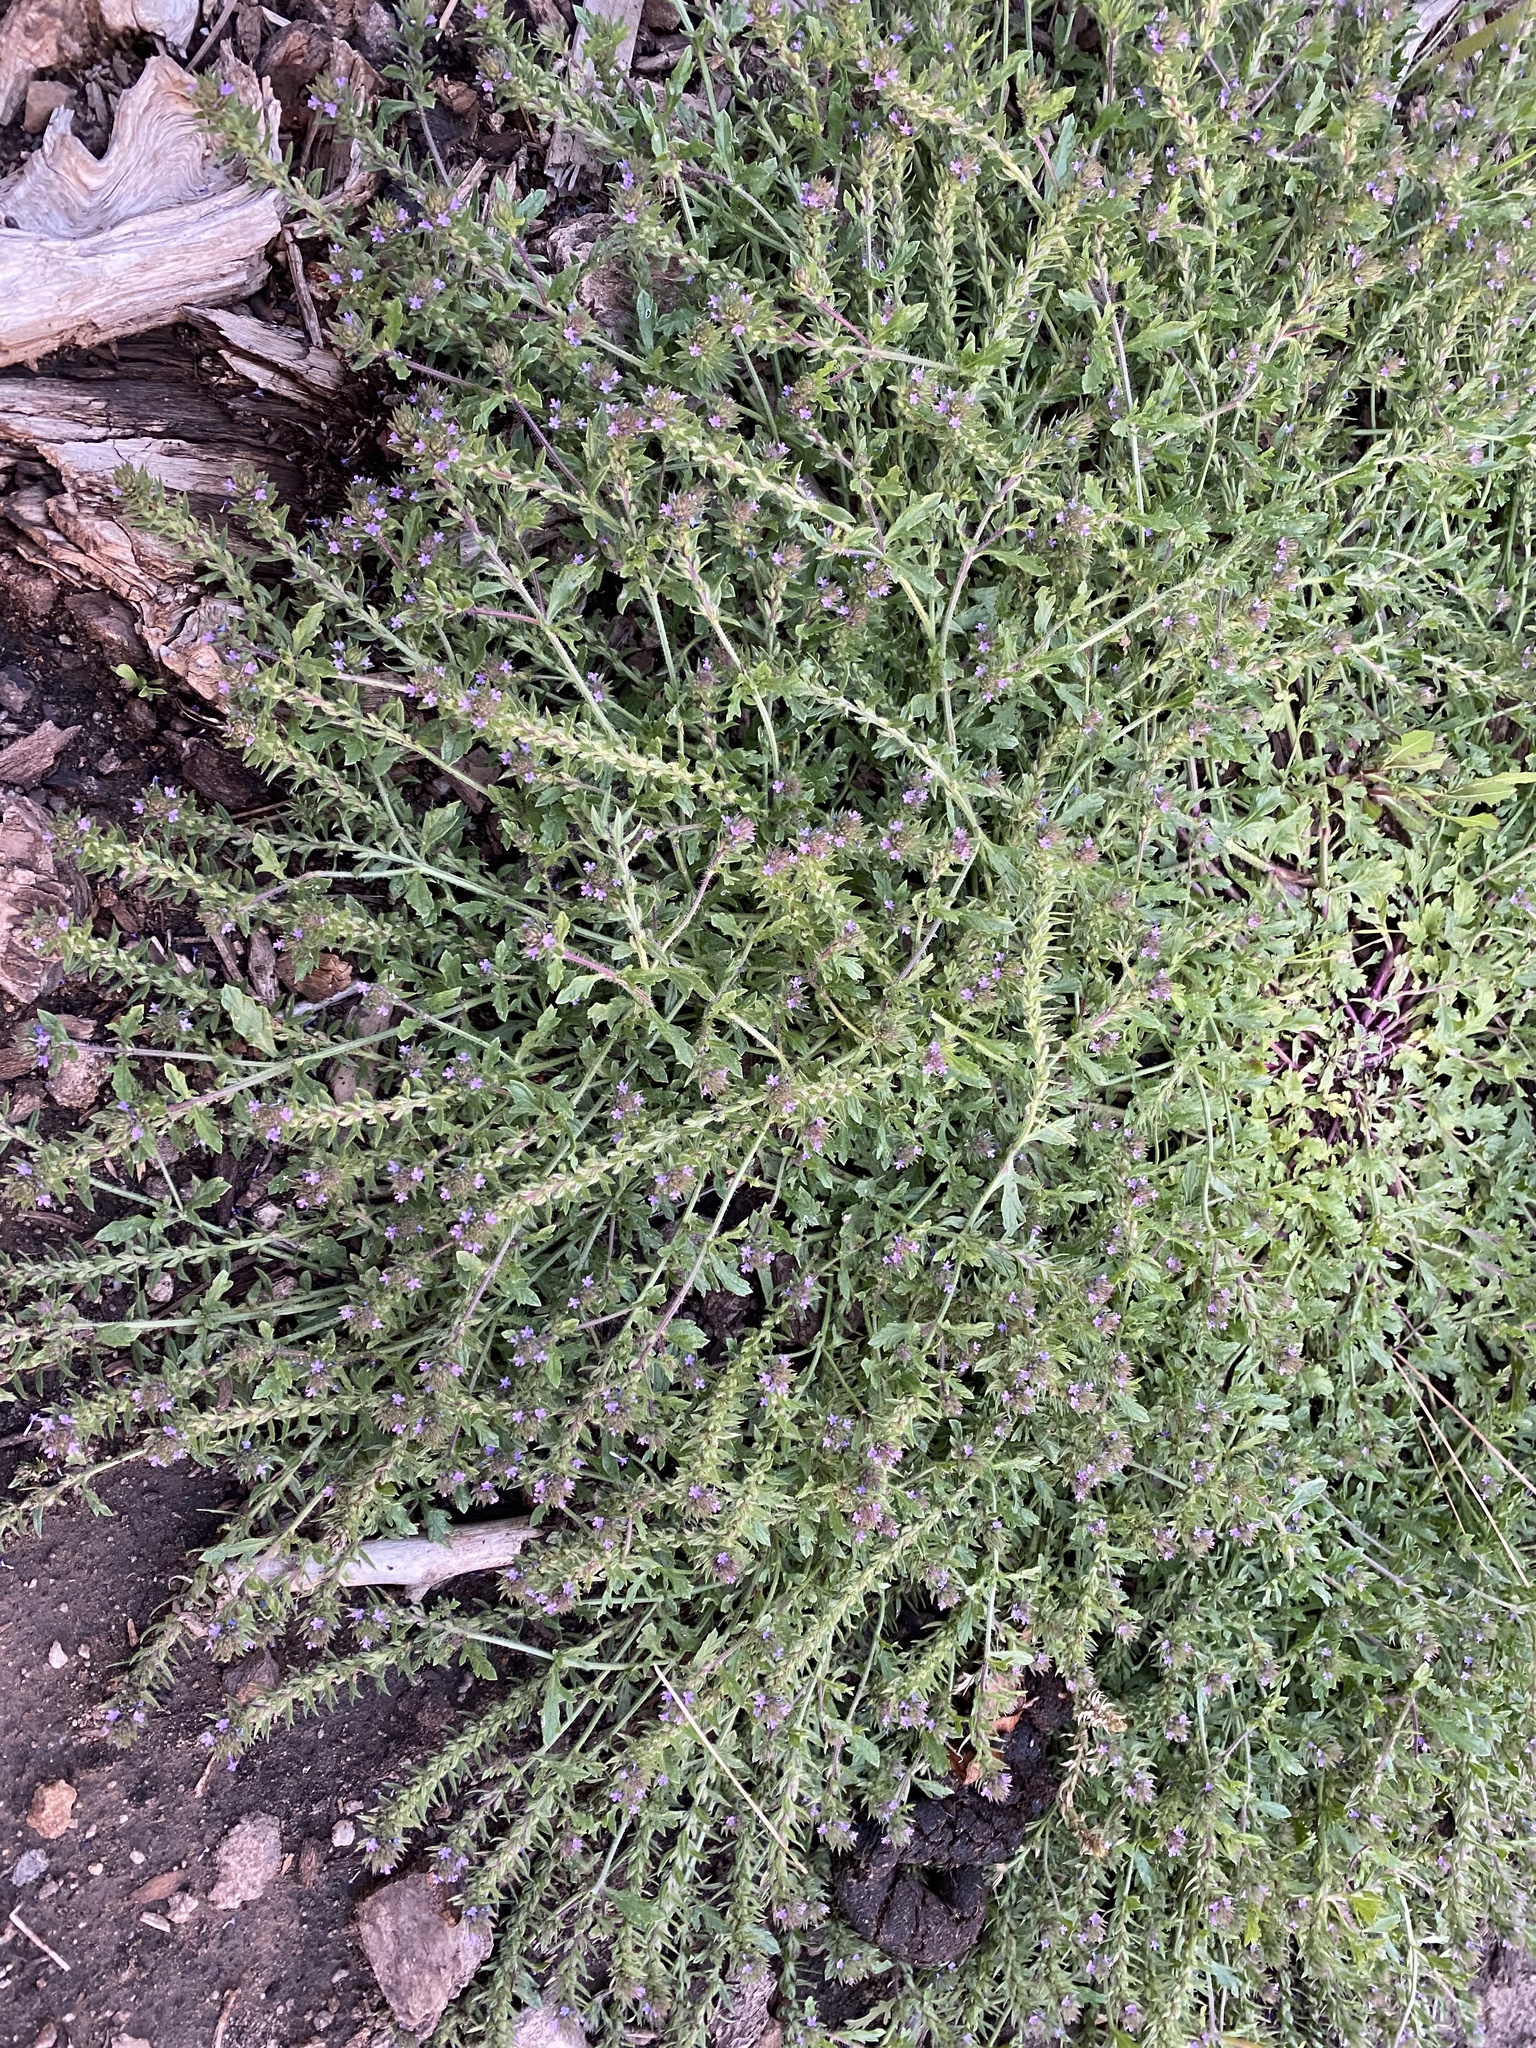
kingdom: Plantae
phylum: Tracheophyta
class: Magnoliopsida
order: Lamiales
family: Verbenaceae
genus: Verbena
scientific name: Verbena bracteata
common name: Bracted vervain
